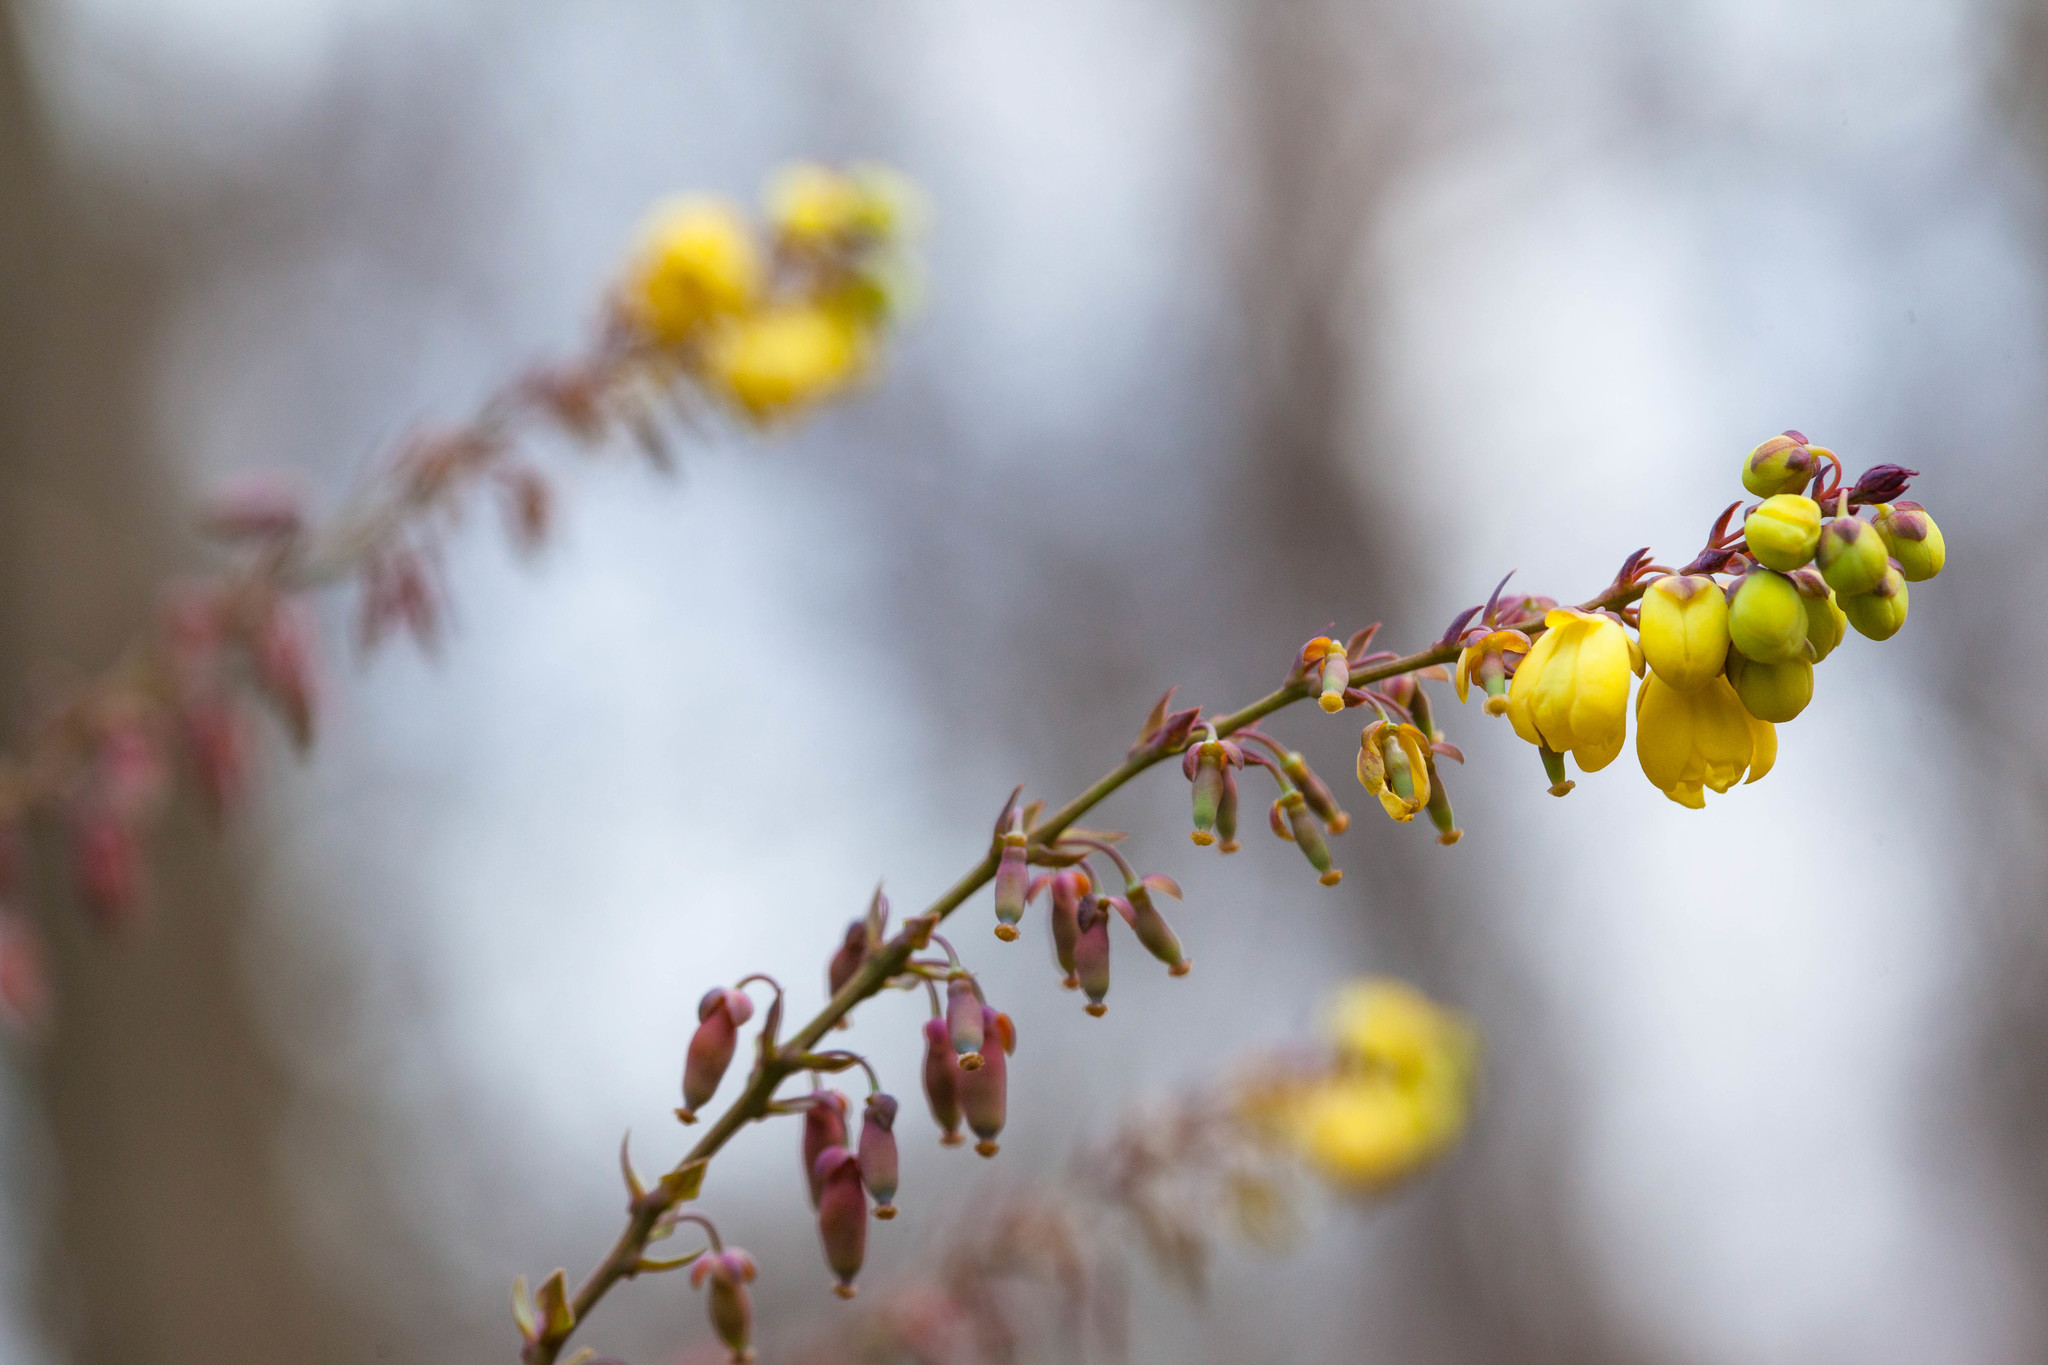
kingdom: Plantae
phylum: Tracheophyta
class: Magnoliopsida
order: Ranunculales
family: Berberidaceae
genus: Mahonia
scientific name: Mahonia bealei
